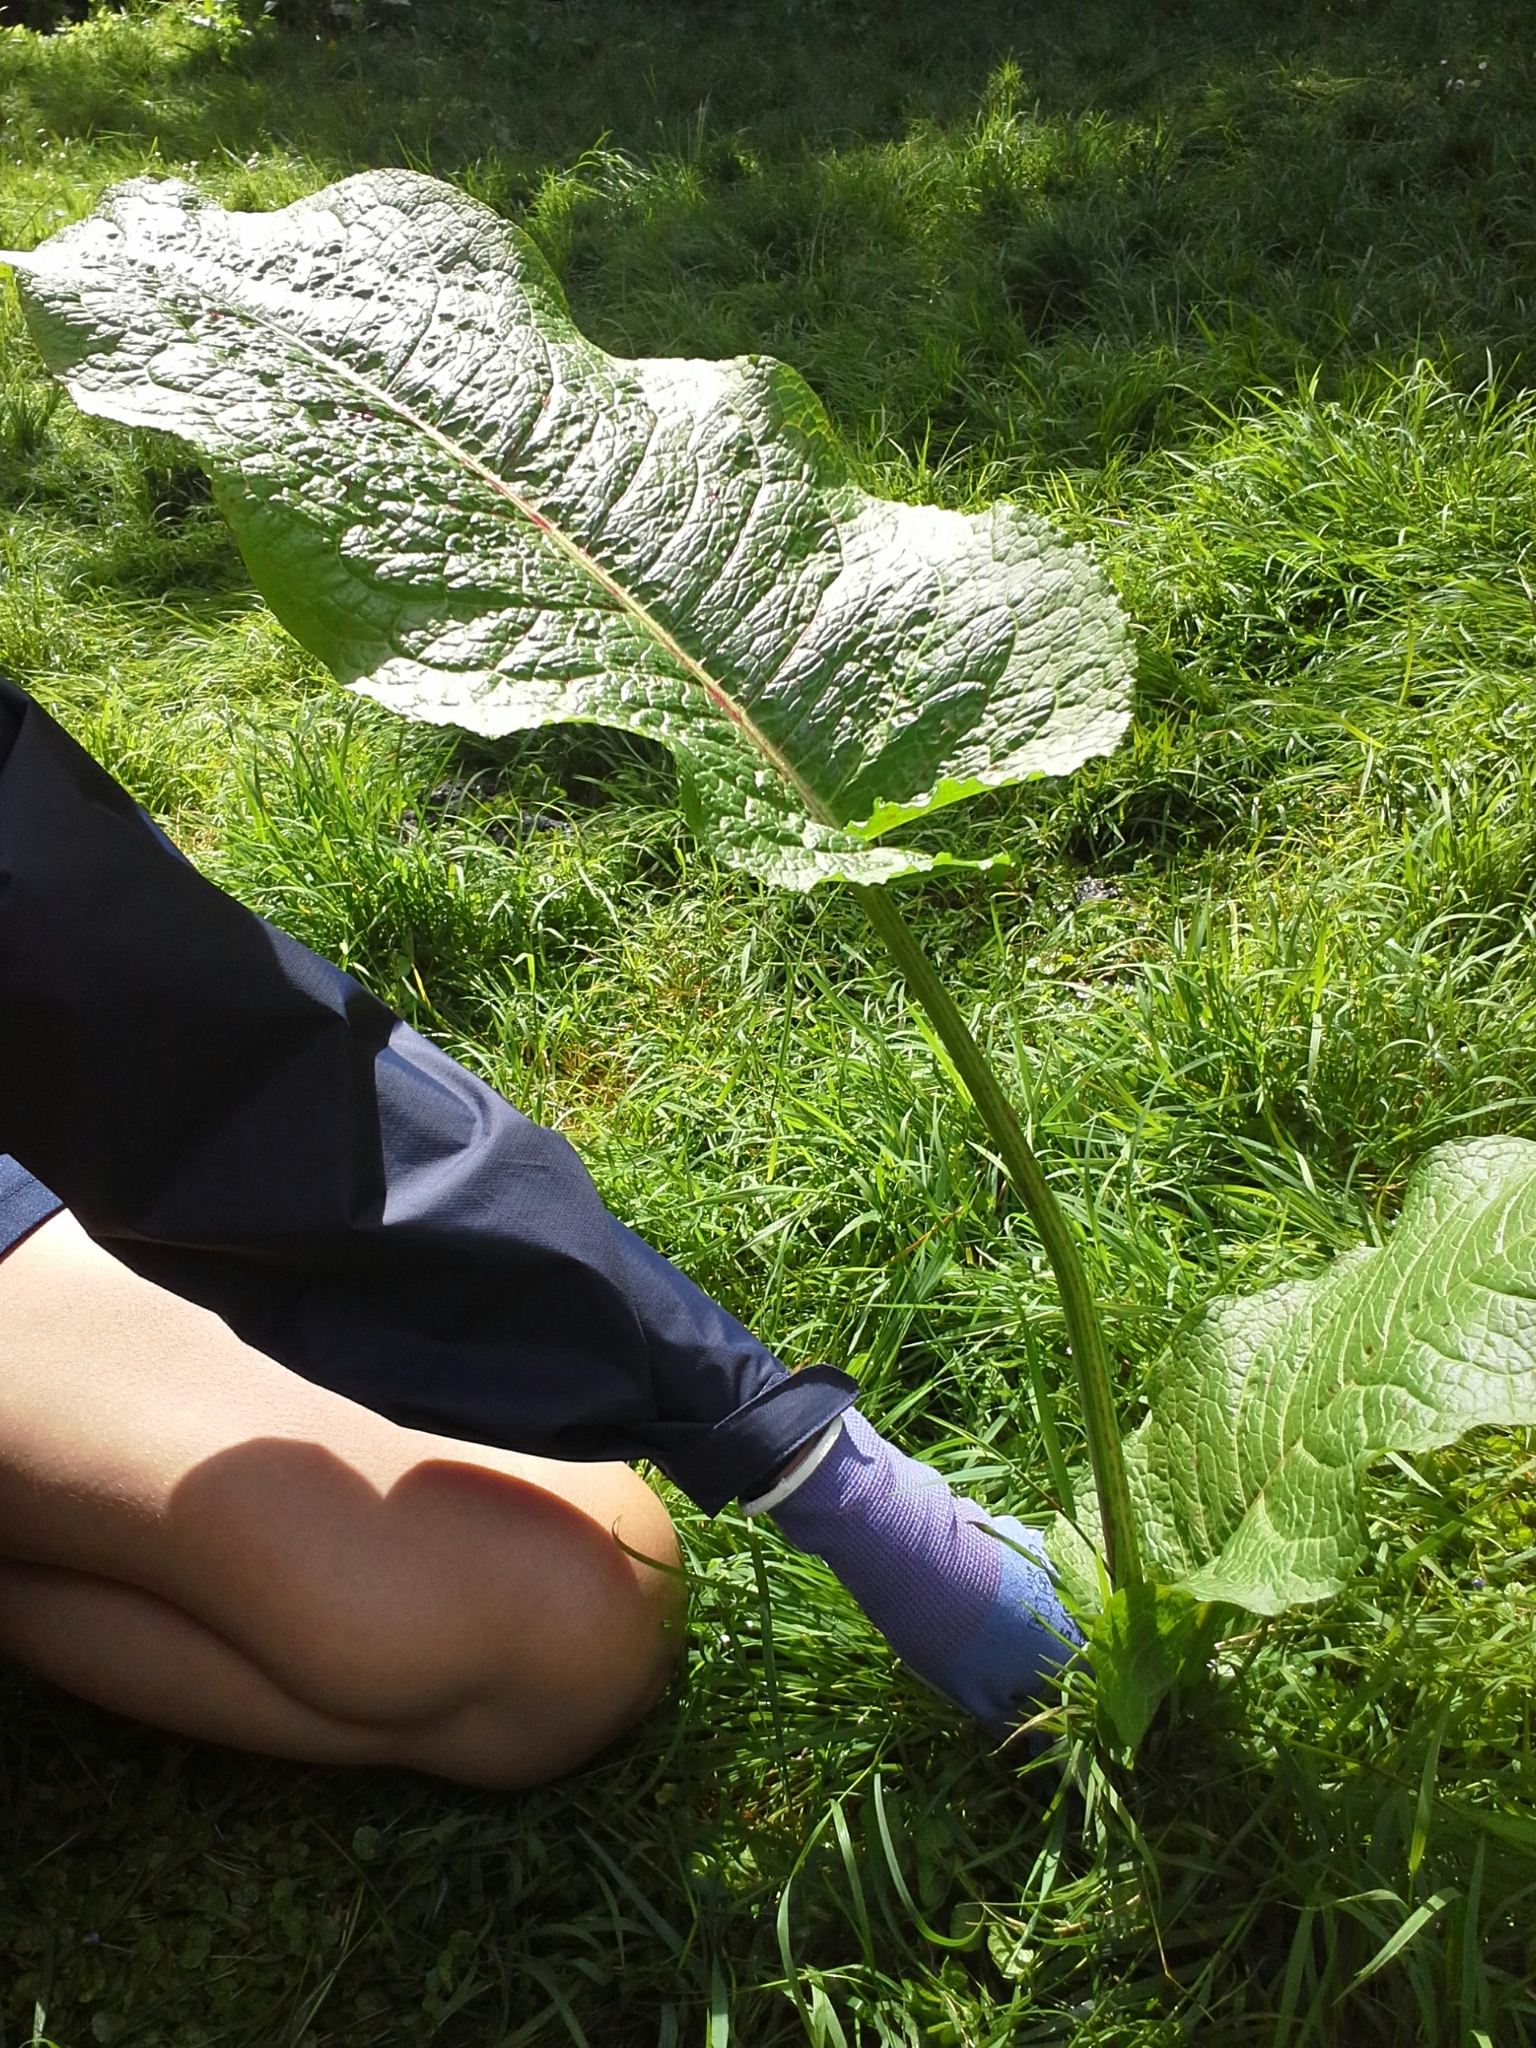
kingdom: Plantae
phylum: Tracheophyta
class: Magnoliopsida
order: Caryophyllales
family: Polygonaceae
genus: Rumex
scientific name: Rumex obtusifolius
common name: Bitter dock
